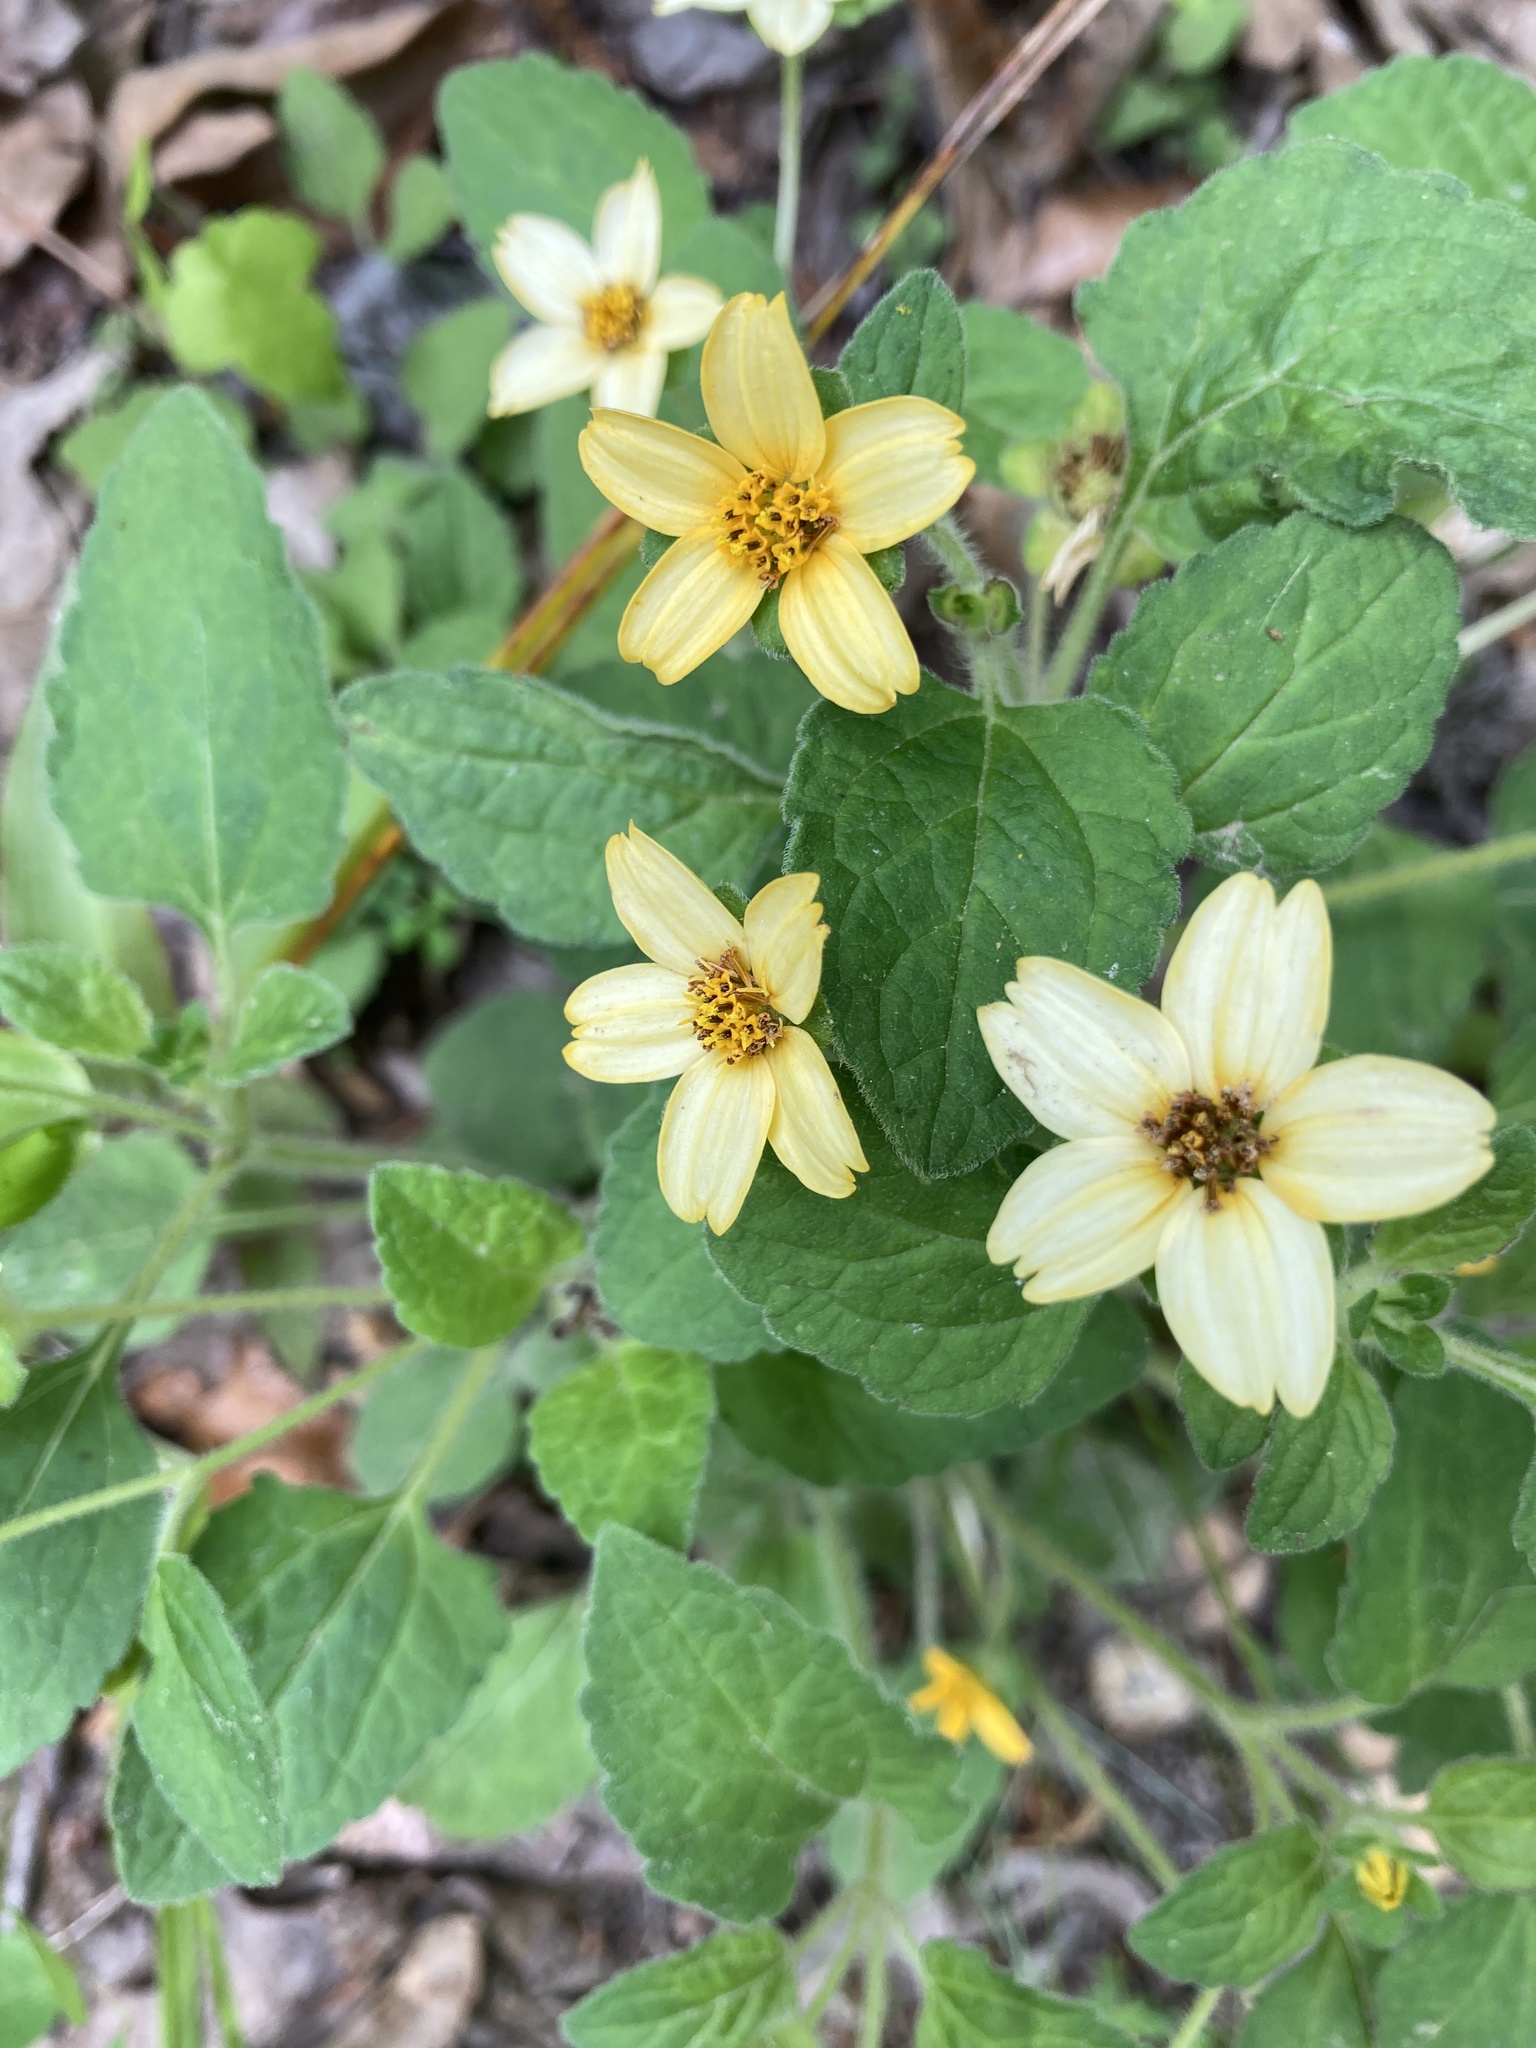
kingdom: Plantae
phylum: Tracheophyta
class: Magnoliopsida
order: Asterales
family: Asteraceae
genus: Chrysogonum
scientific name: Chrysogonum virginianum
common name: Golden-knee
